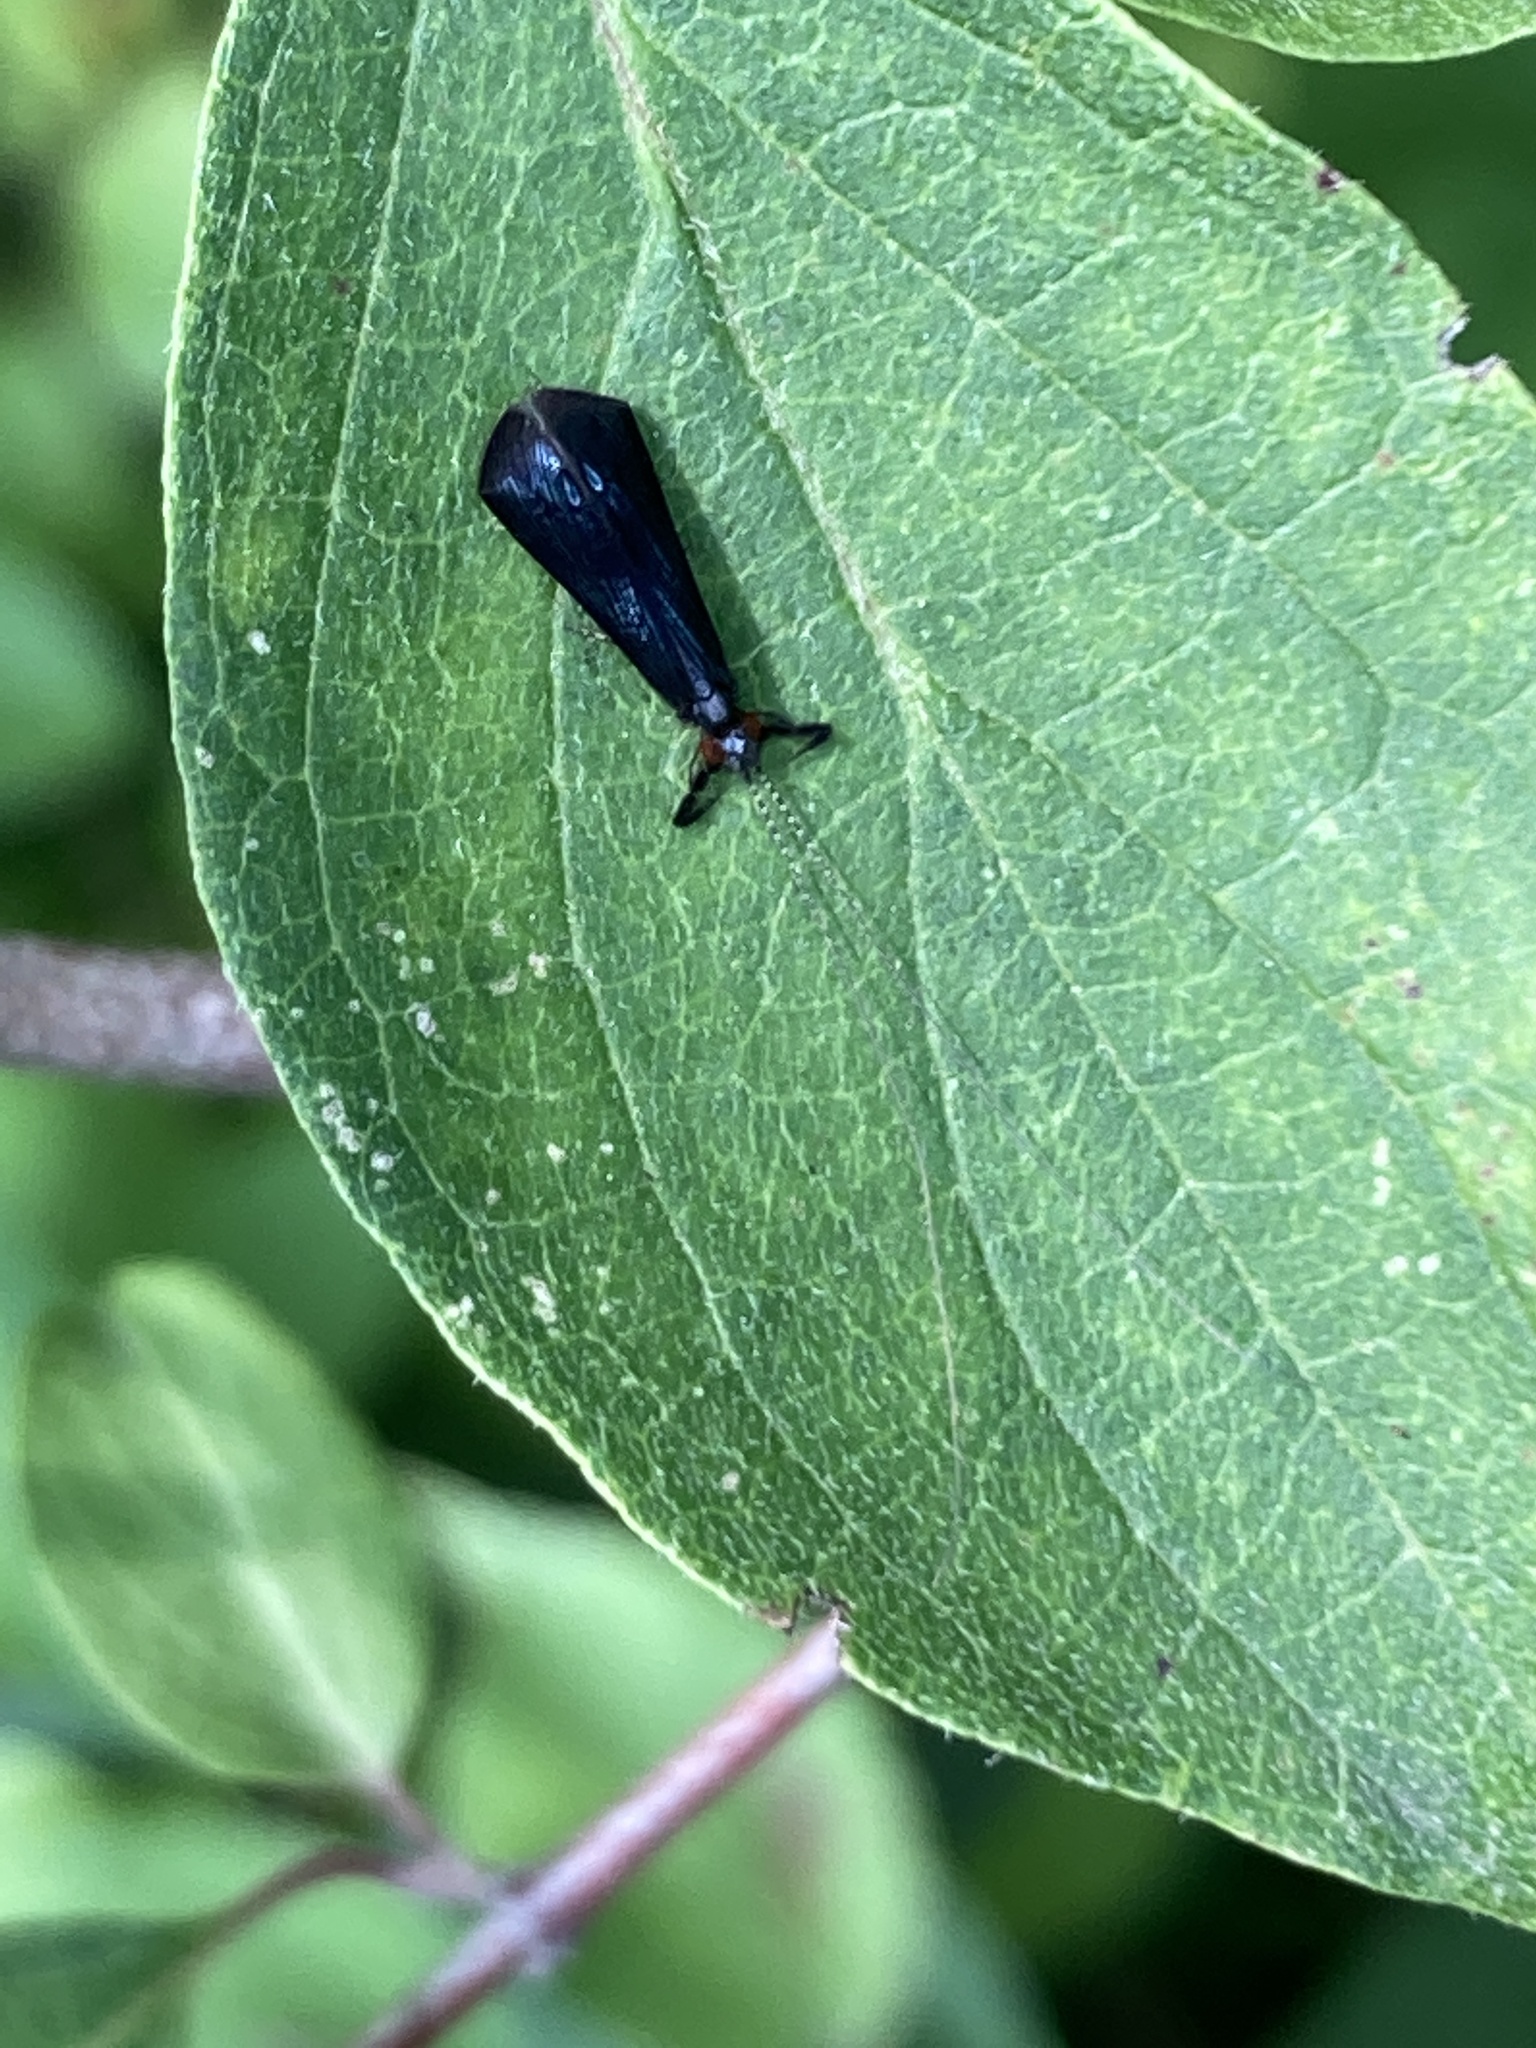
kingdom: Animalia
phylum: Arthropoda
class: Insecta
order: Trichoptera
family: Leptoceridae
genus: Mystacides
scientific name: Mystacides sepulchralis
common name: Black dancer caddisfly
